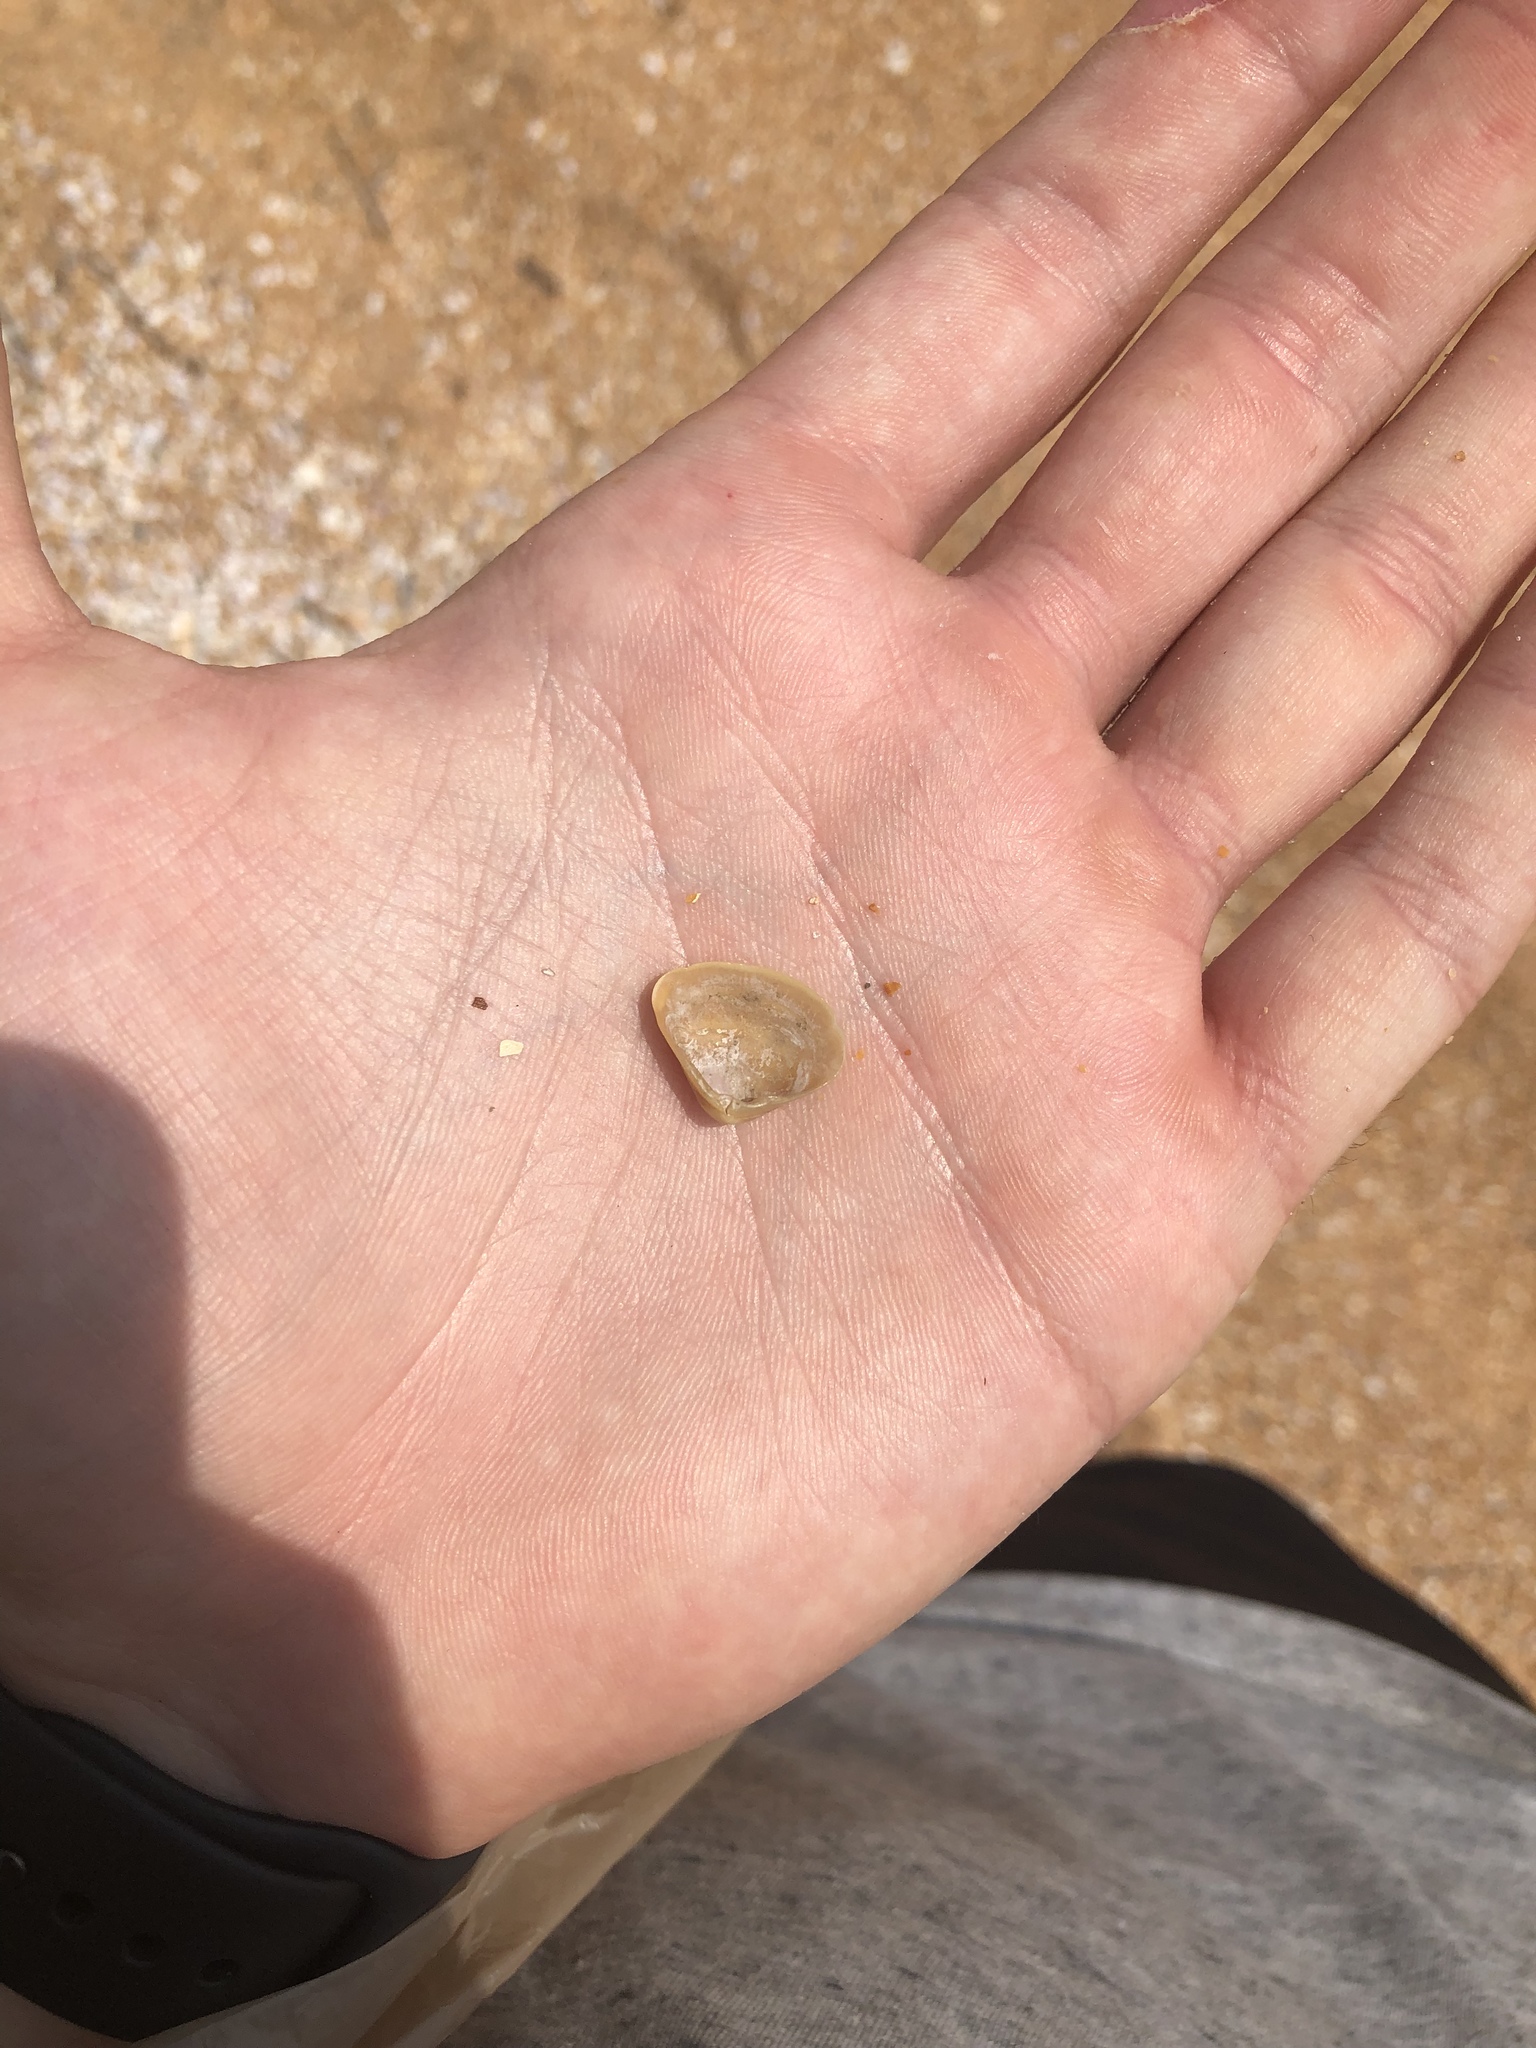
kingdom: Animalia
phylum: Mollusca
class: Bivalvia
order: Venerida
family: Mactridae
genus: Mulinia
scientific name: Mulinia lateralis
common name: Dwarf surfclam
